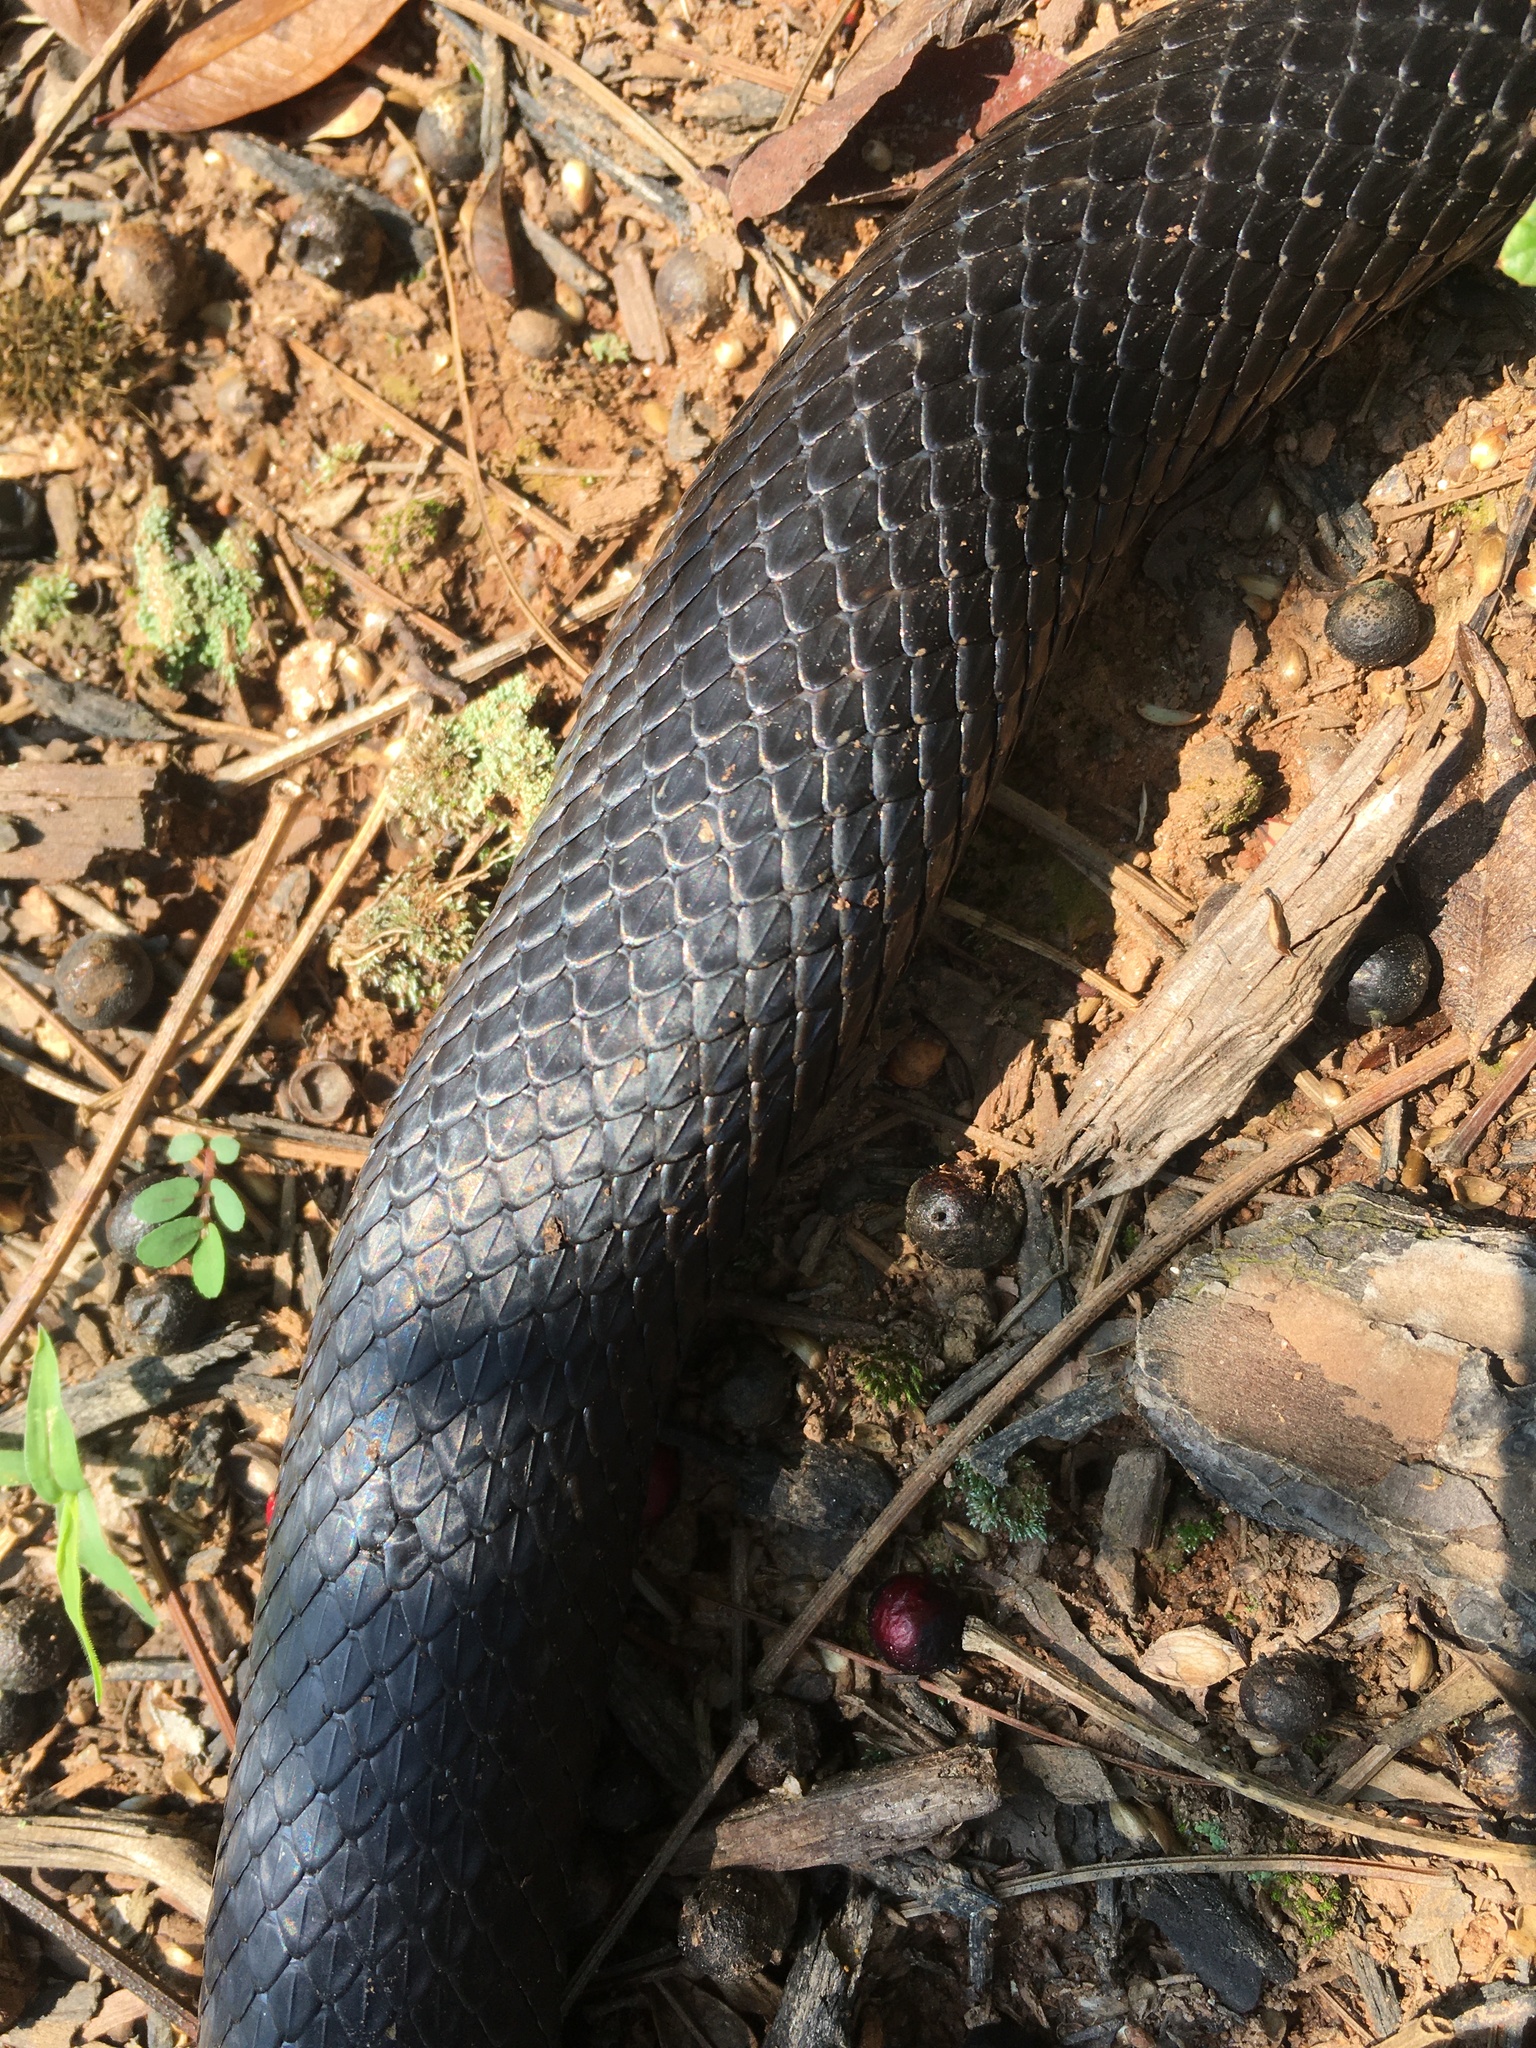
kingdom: Animalia
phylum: Chordata
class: Squamata
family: Colubridae
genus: Pantherophis
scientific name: Pantherophis alleghaniensis
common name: Eastern rat snake
